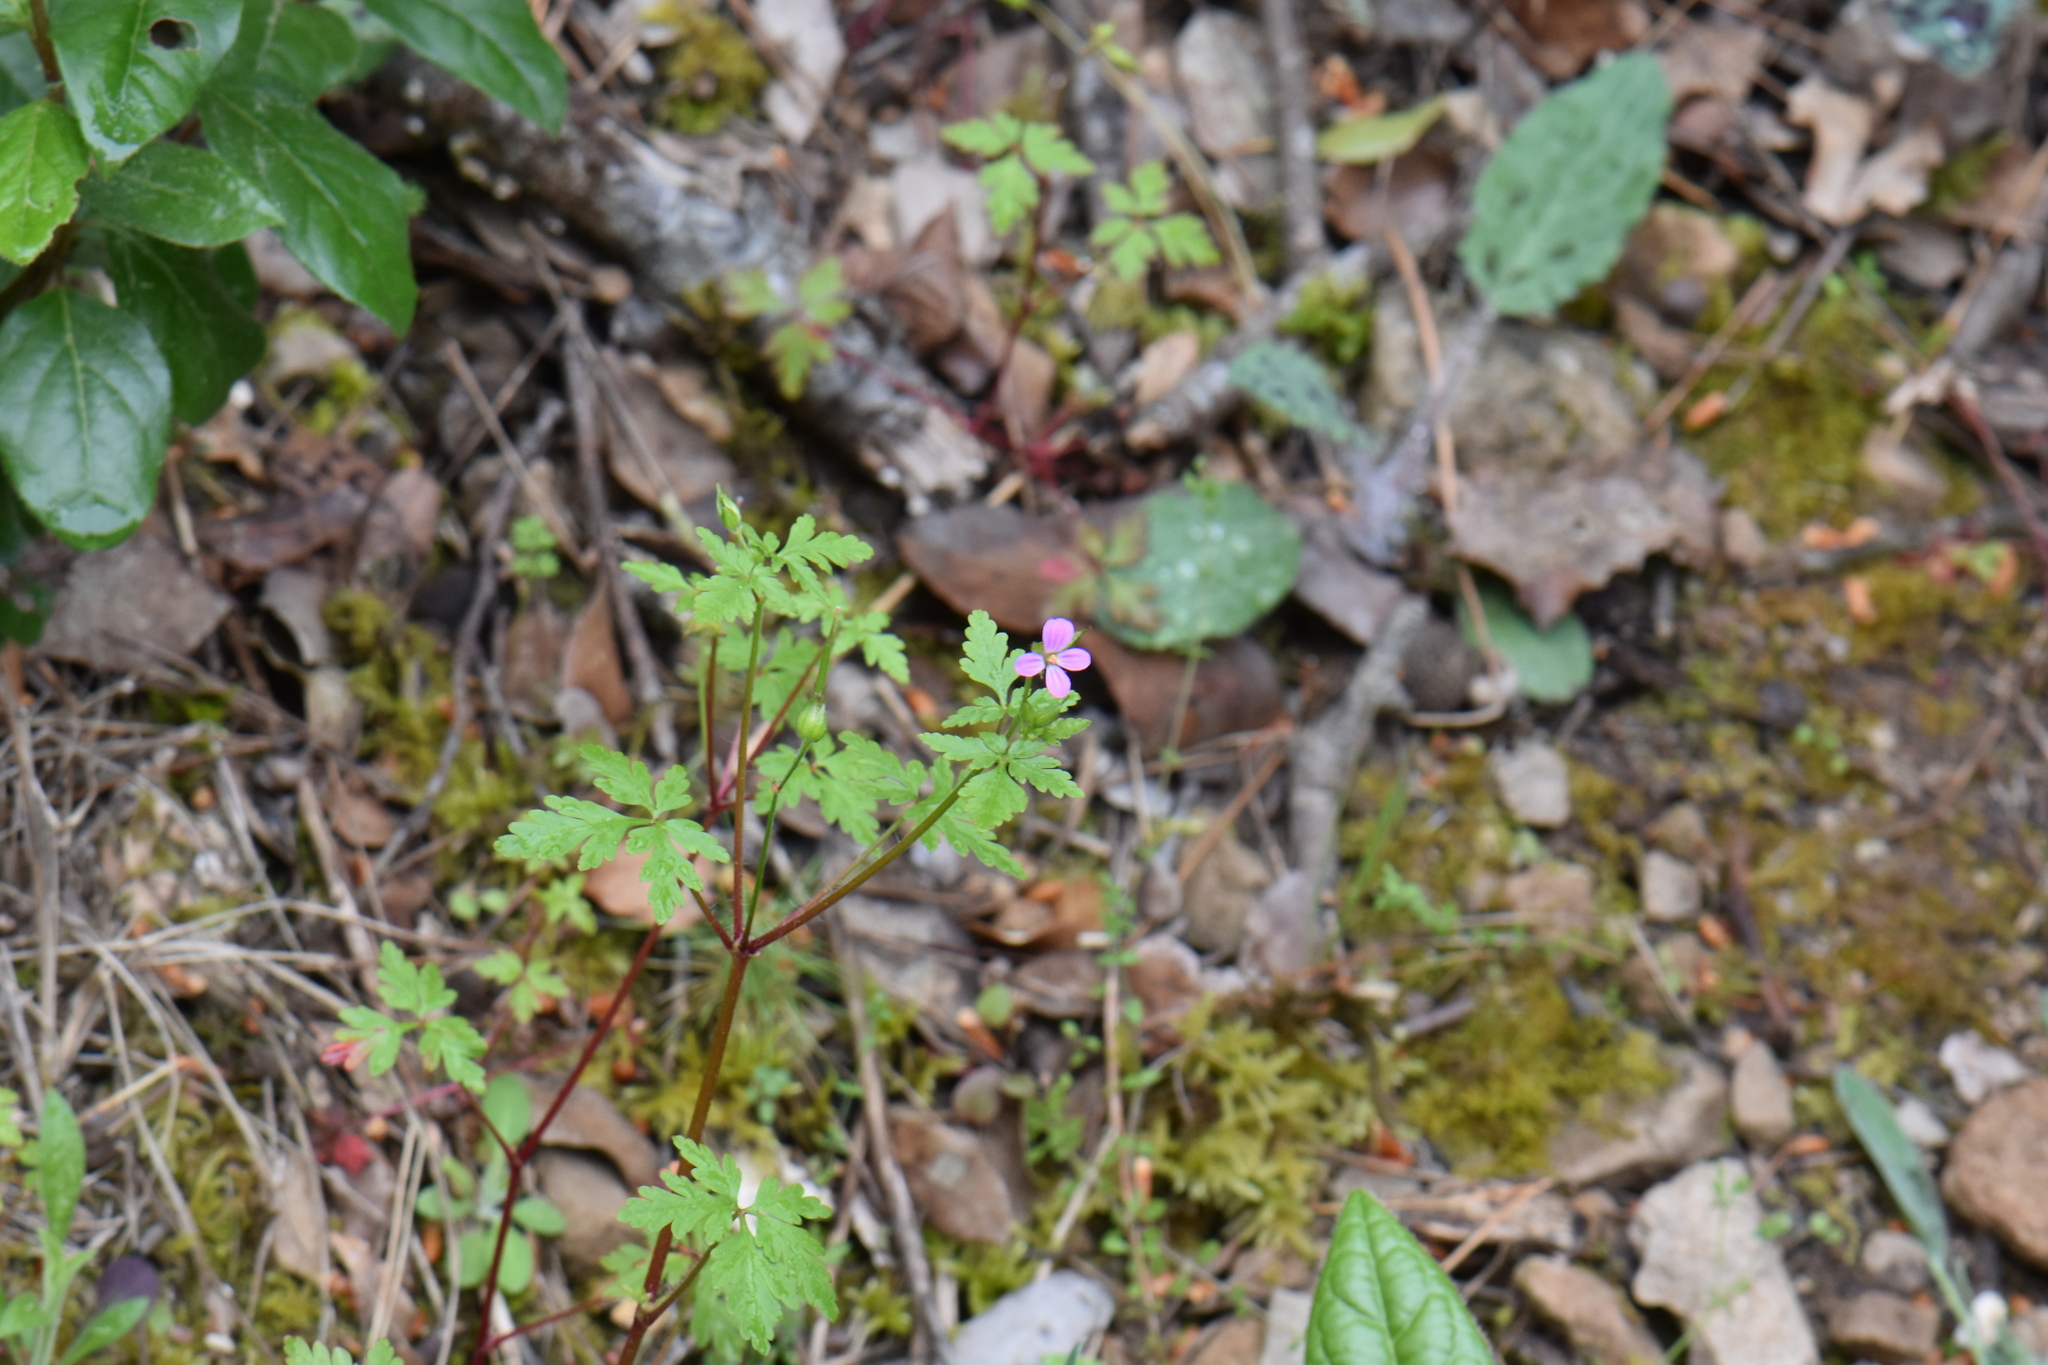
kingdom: Plantae
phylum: Tracheophyta
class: Magnoliopsida
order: Geraniales
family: Geraniaceae
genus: Geranium
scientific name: Geranium purpureum
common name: Little-robin
